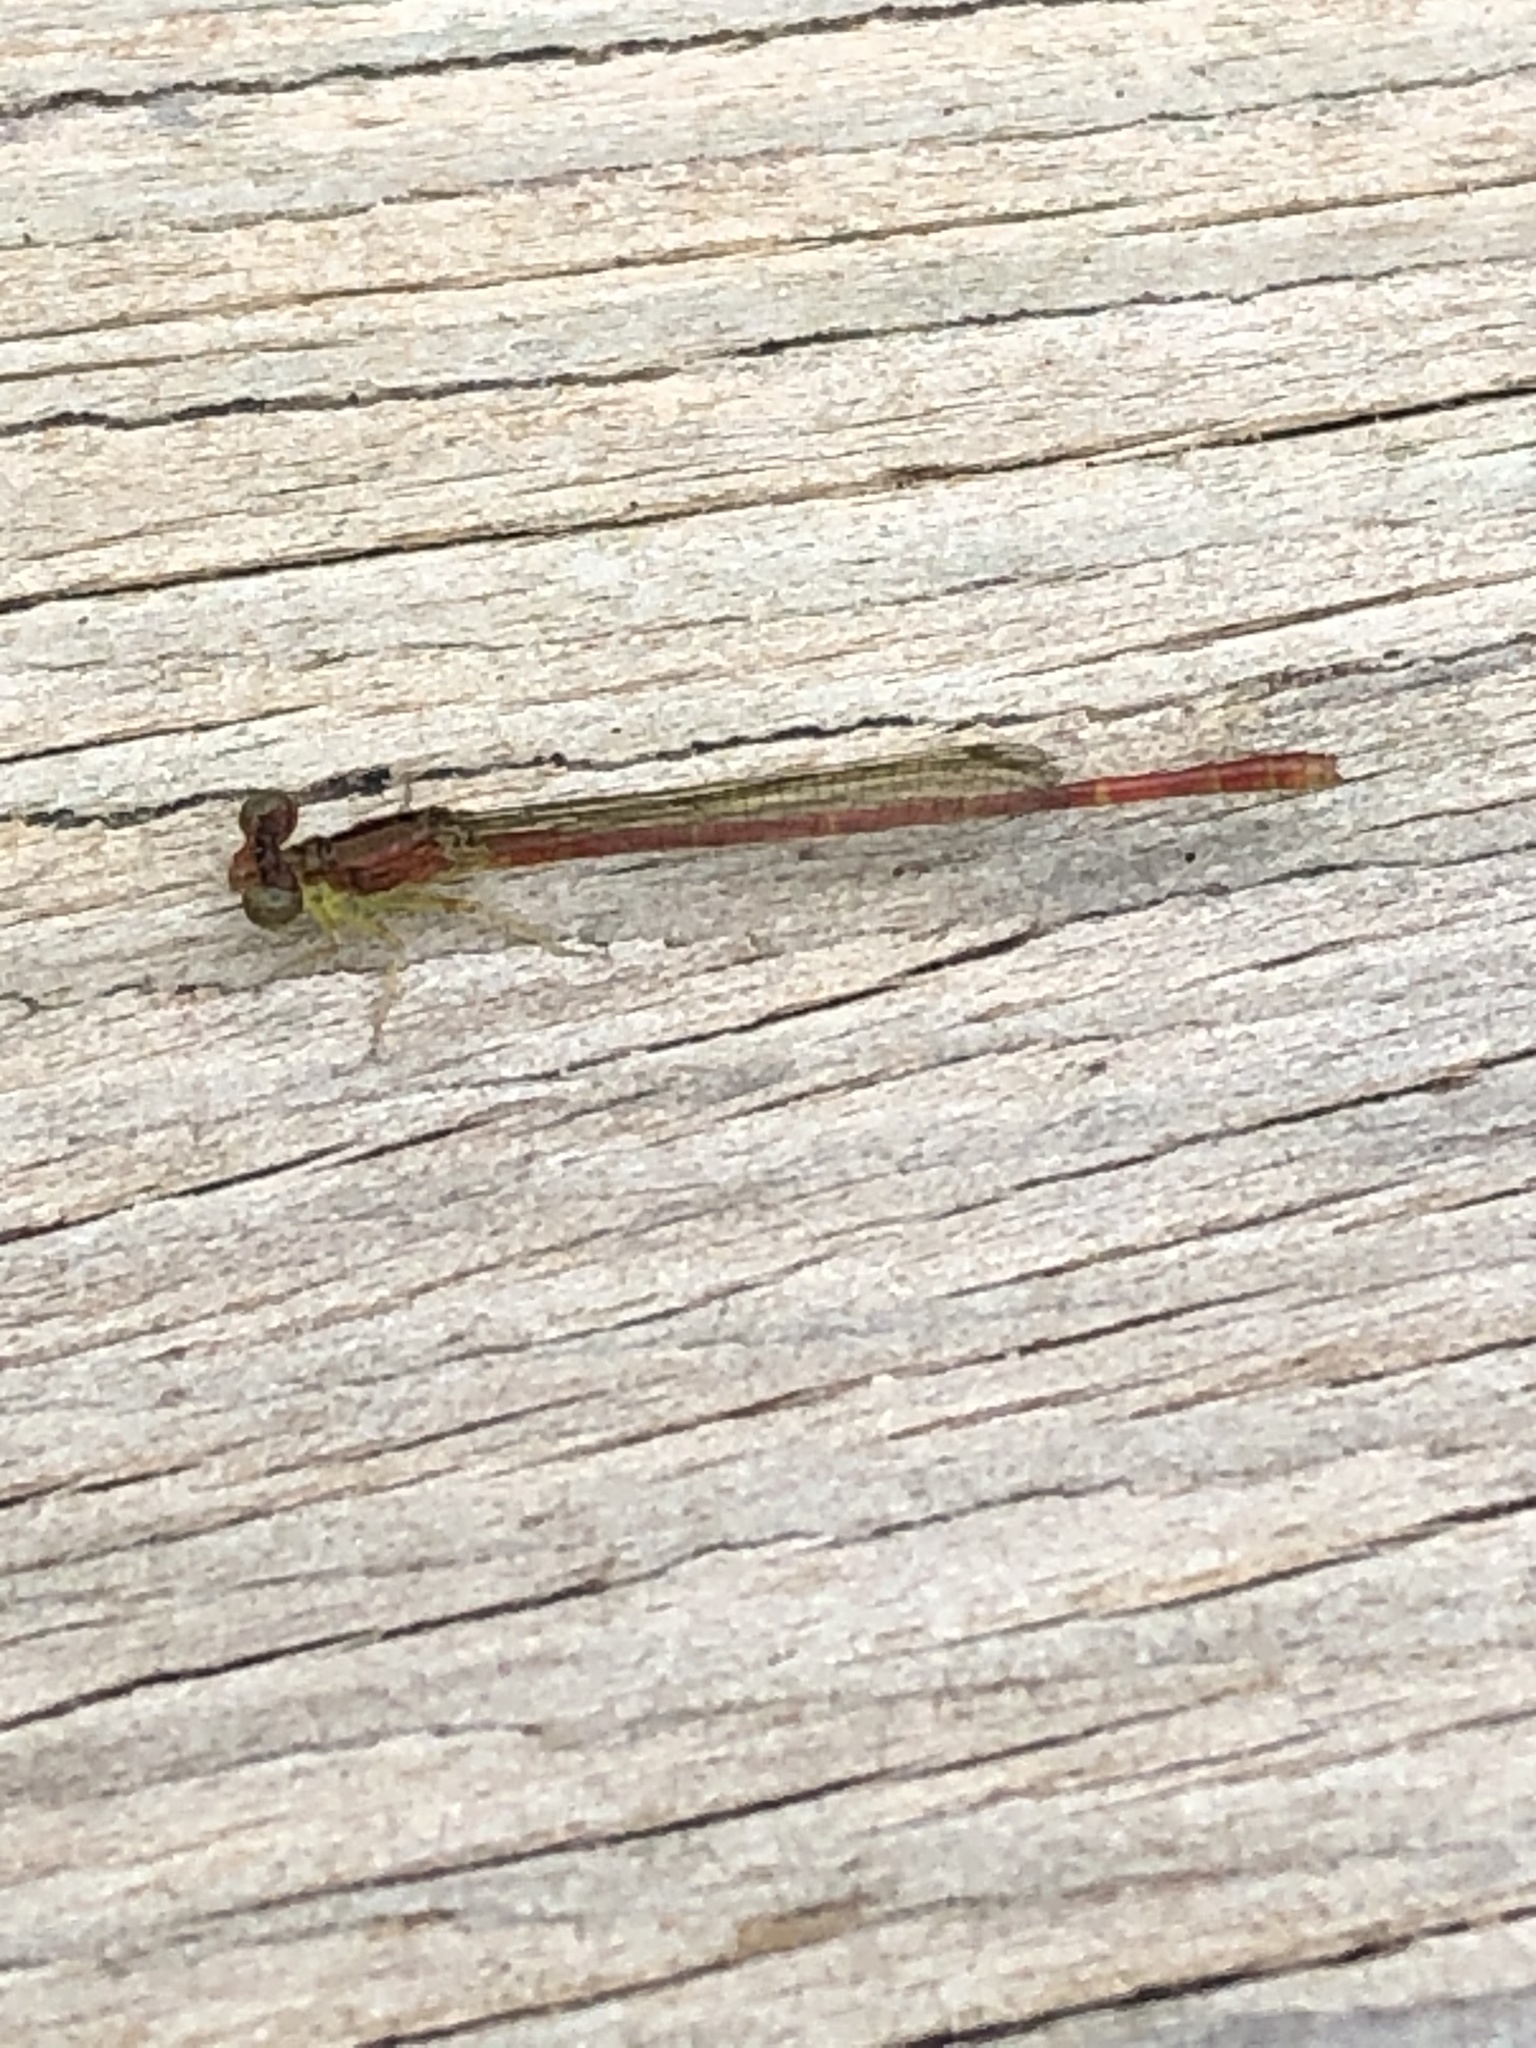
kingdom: Animalia
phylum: Arthropoda
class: Insecta
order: Odonata
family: Coenagrionidae
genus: Telebasis
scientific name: Telebasis byersi
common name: Duckweed firetail
